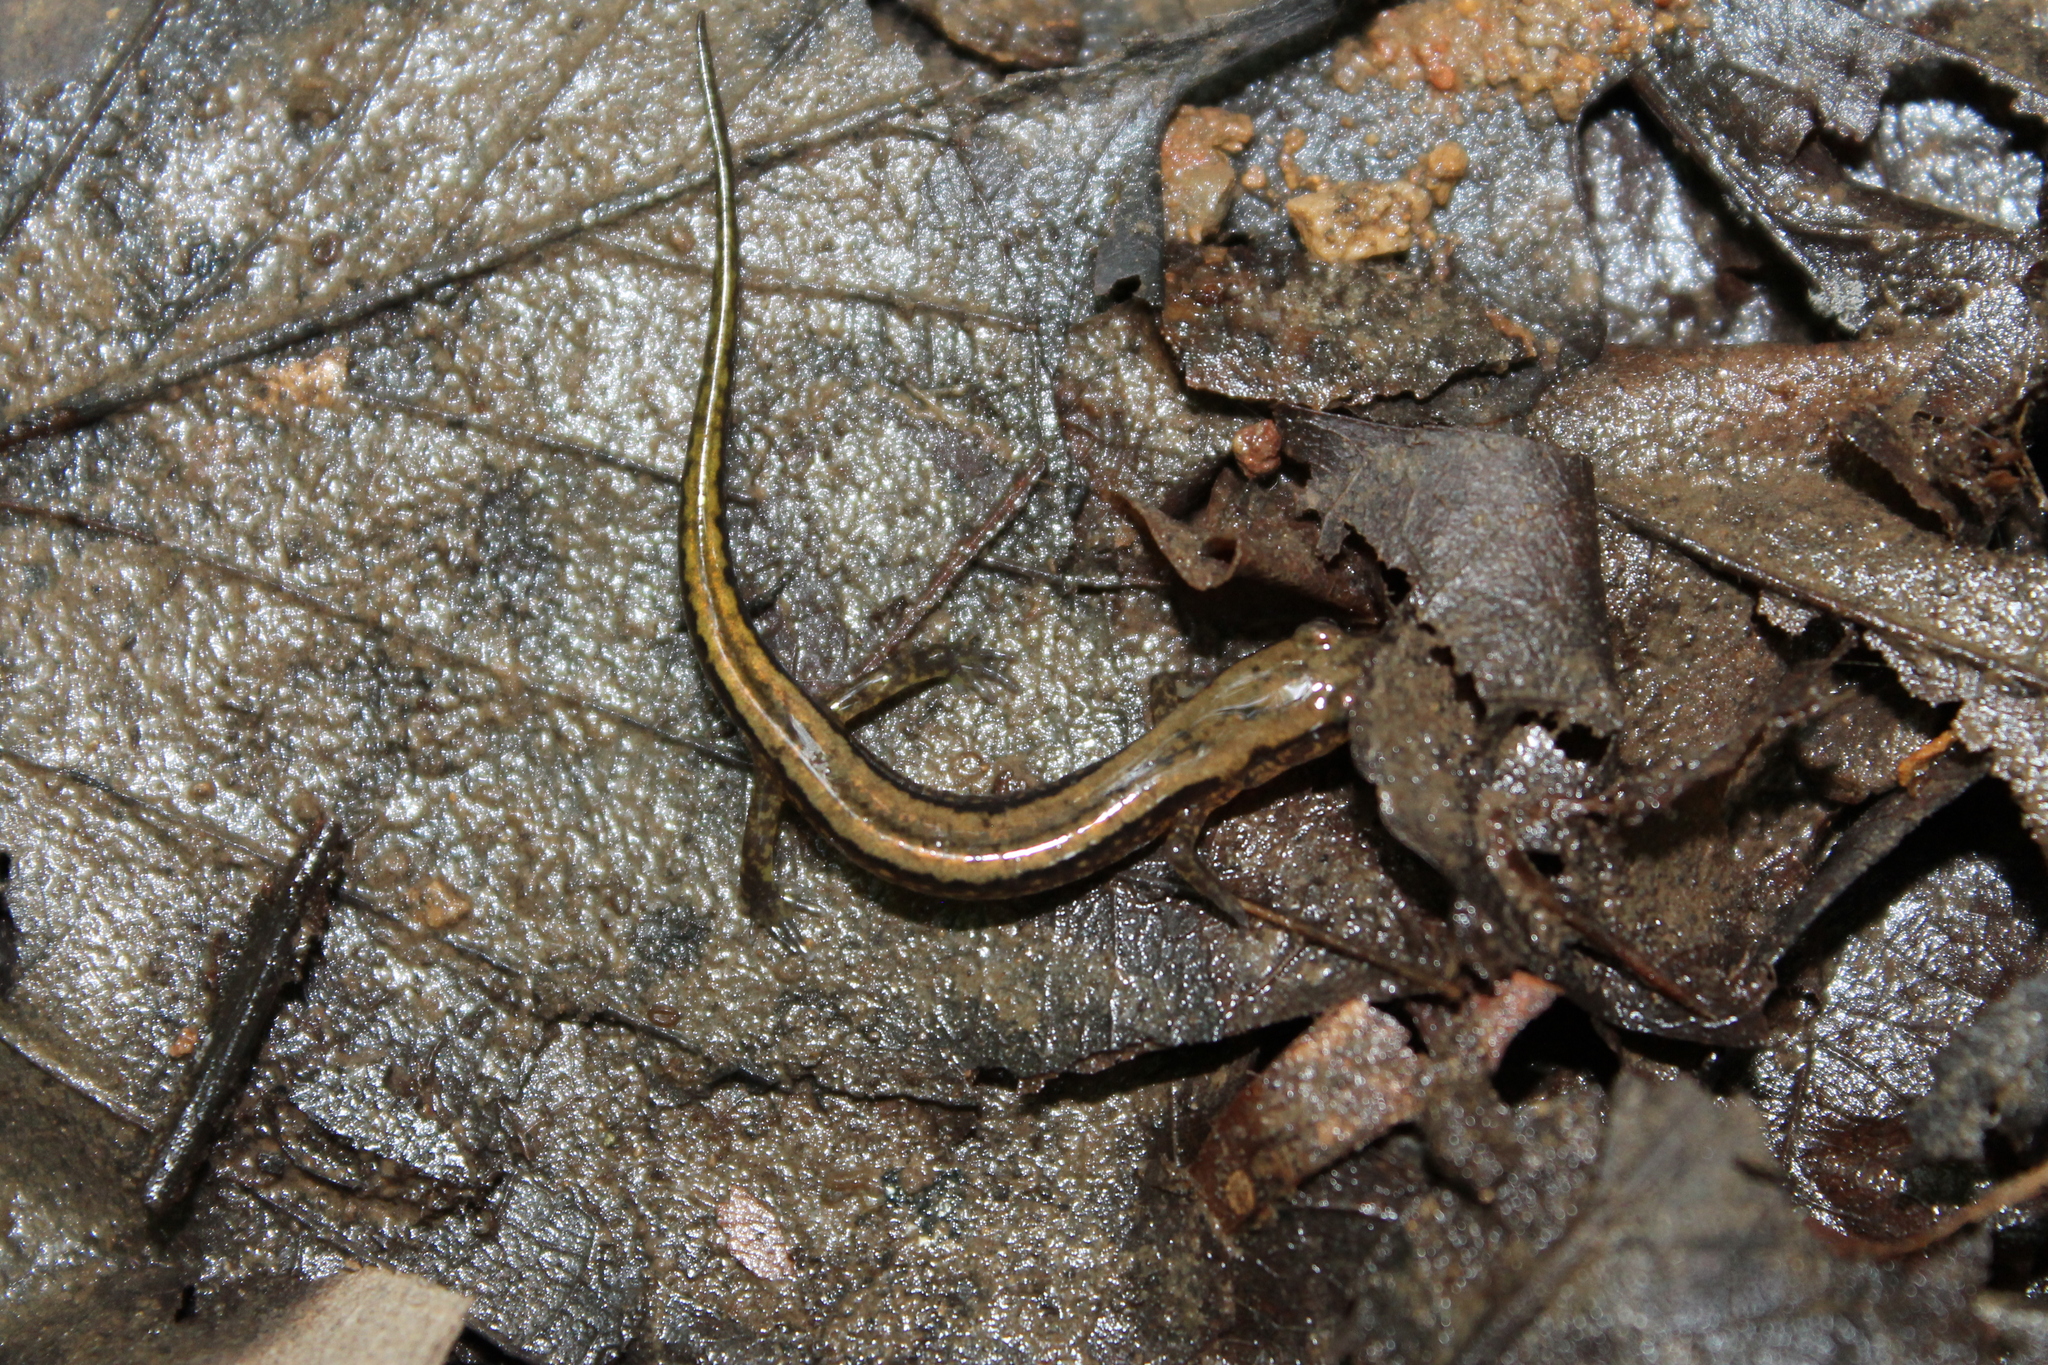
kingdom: Animalia
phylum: Chordata
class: Amphibia
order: Caudata
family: Plethodontidae
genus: Eurycea
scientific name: Eurycea cirrigera
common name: Southern two-lined salamander
